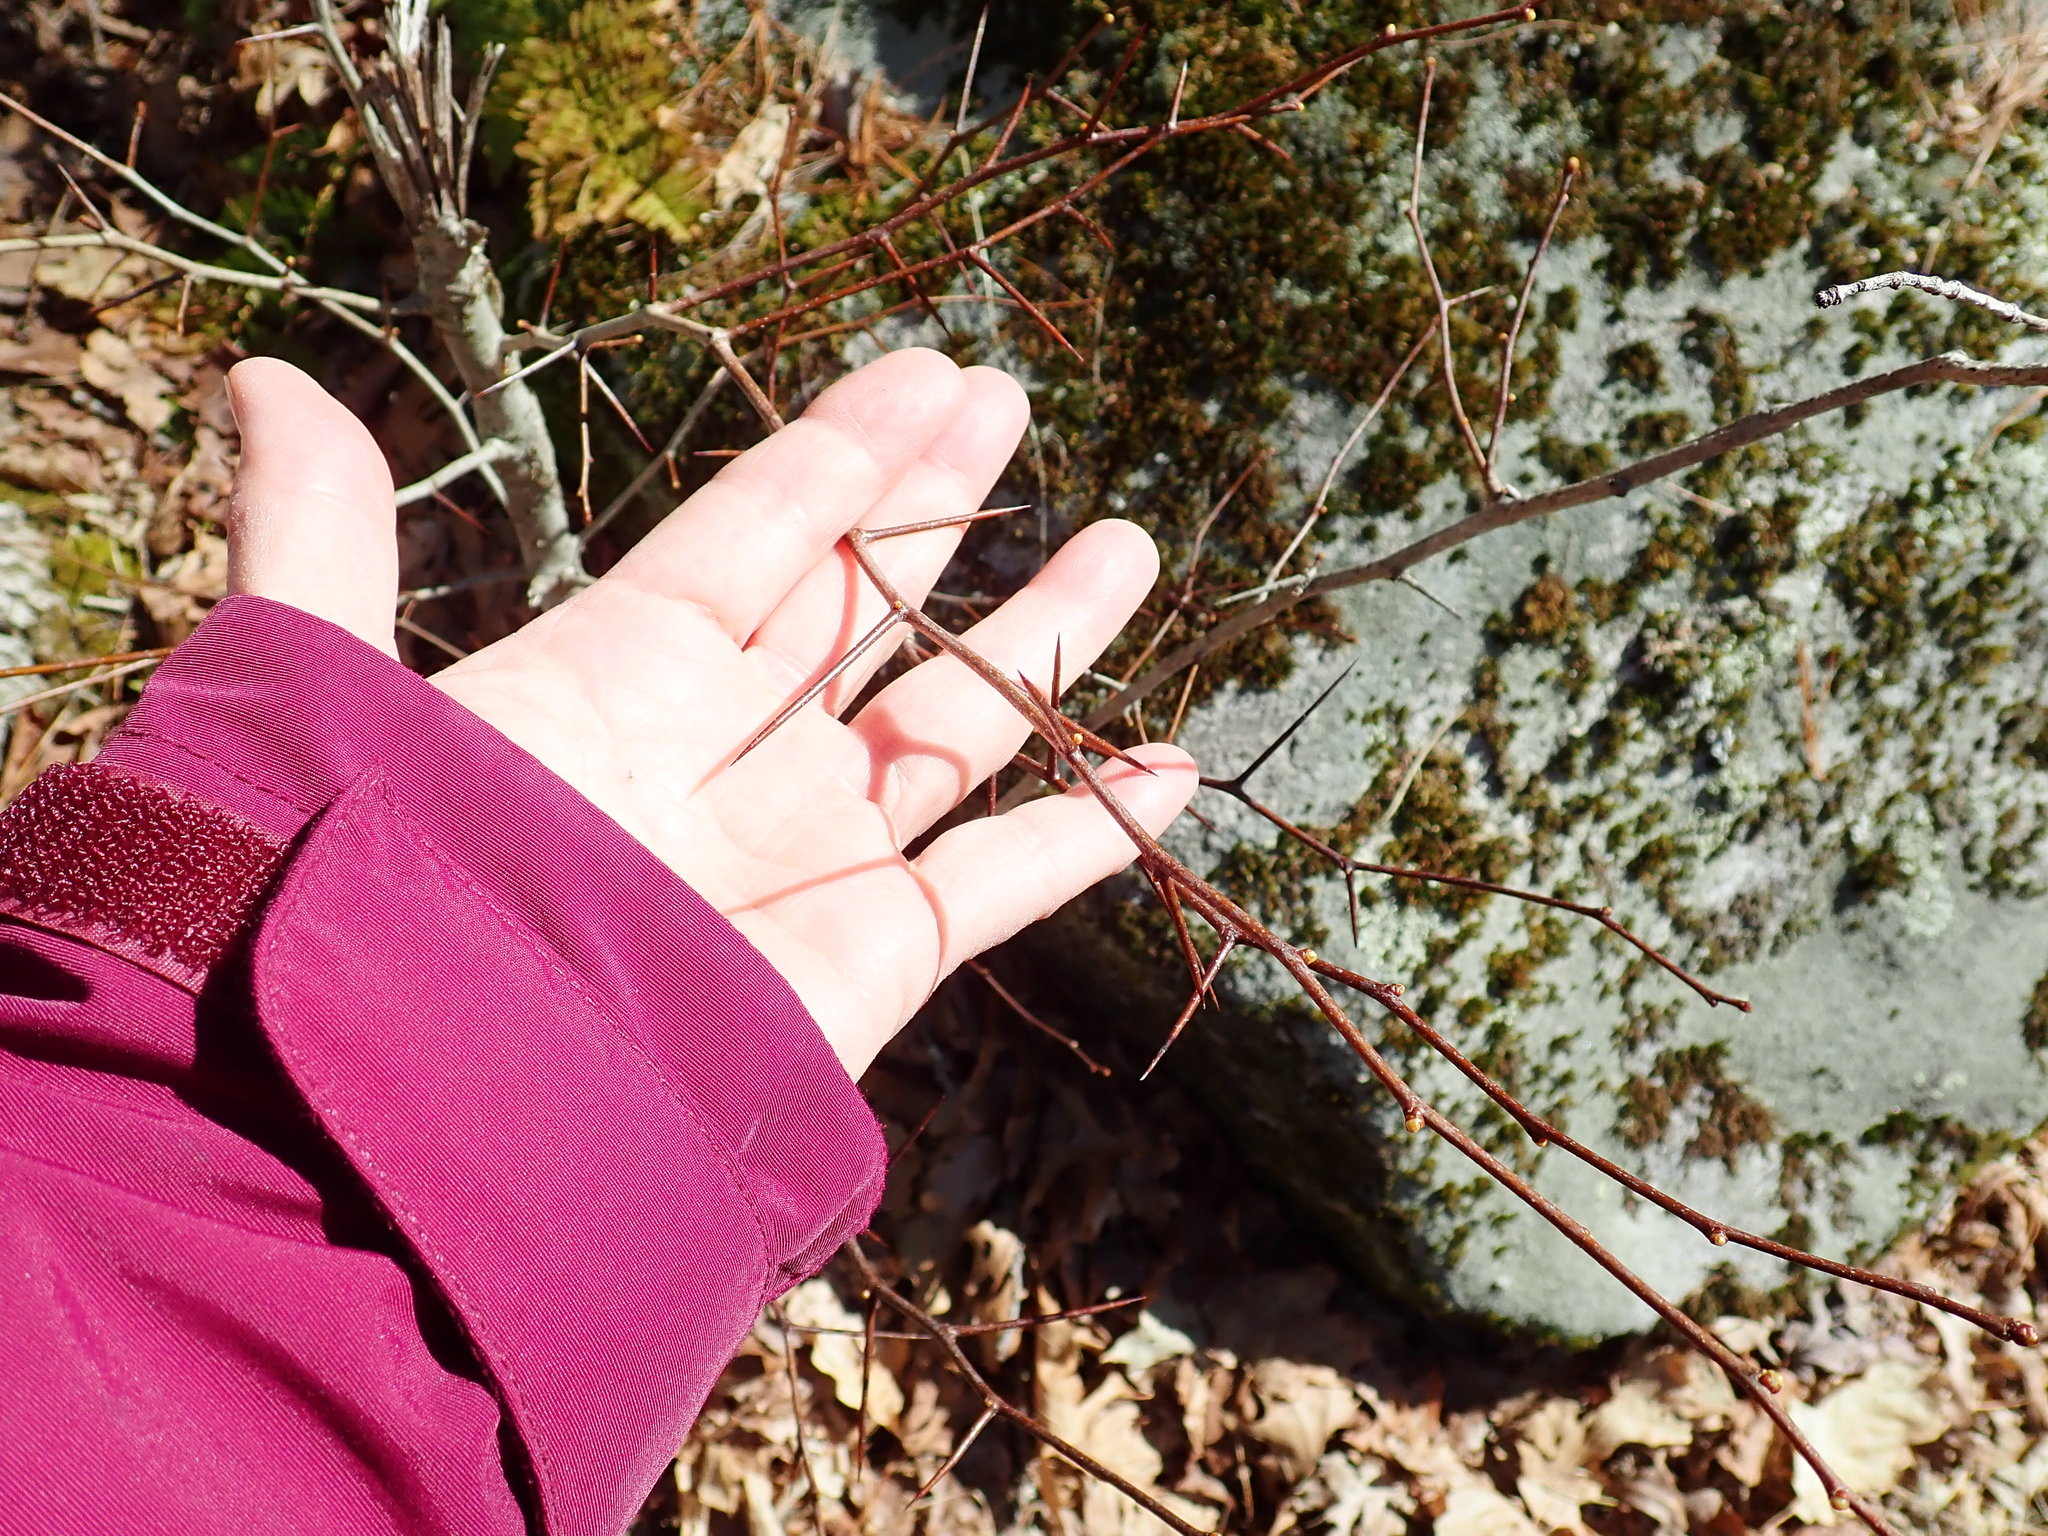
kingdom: Plantae
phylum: Tracheophyta
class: Magnoliopsida
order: Rosales
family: Rosaceae
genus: Crataegus
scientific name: Crataegus
